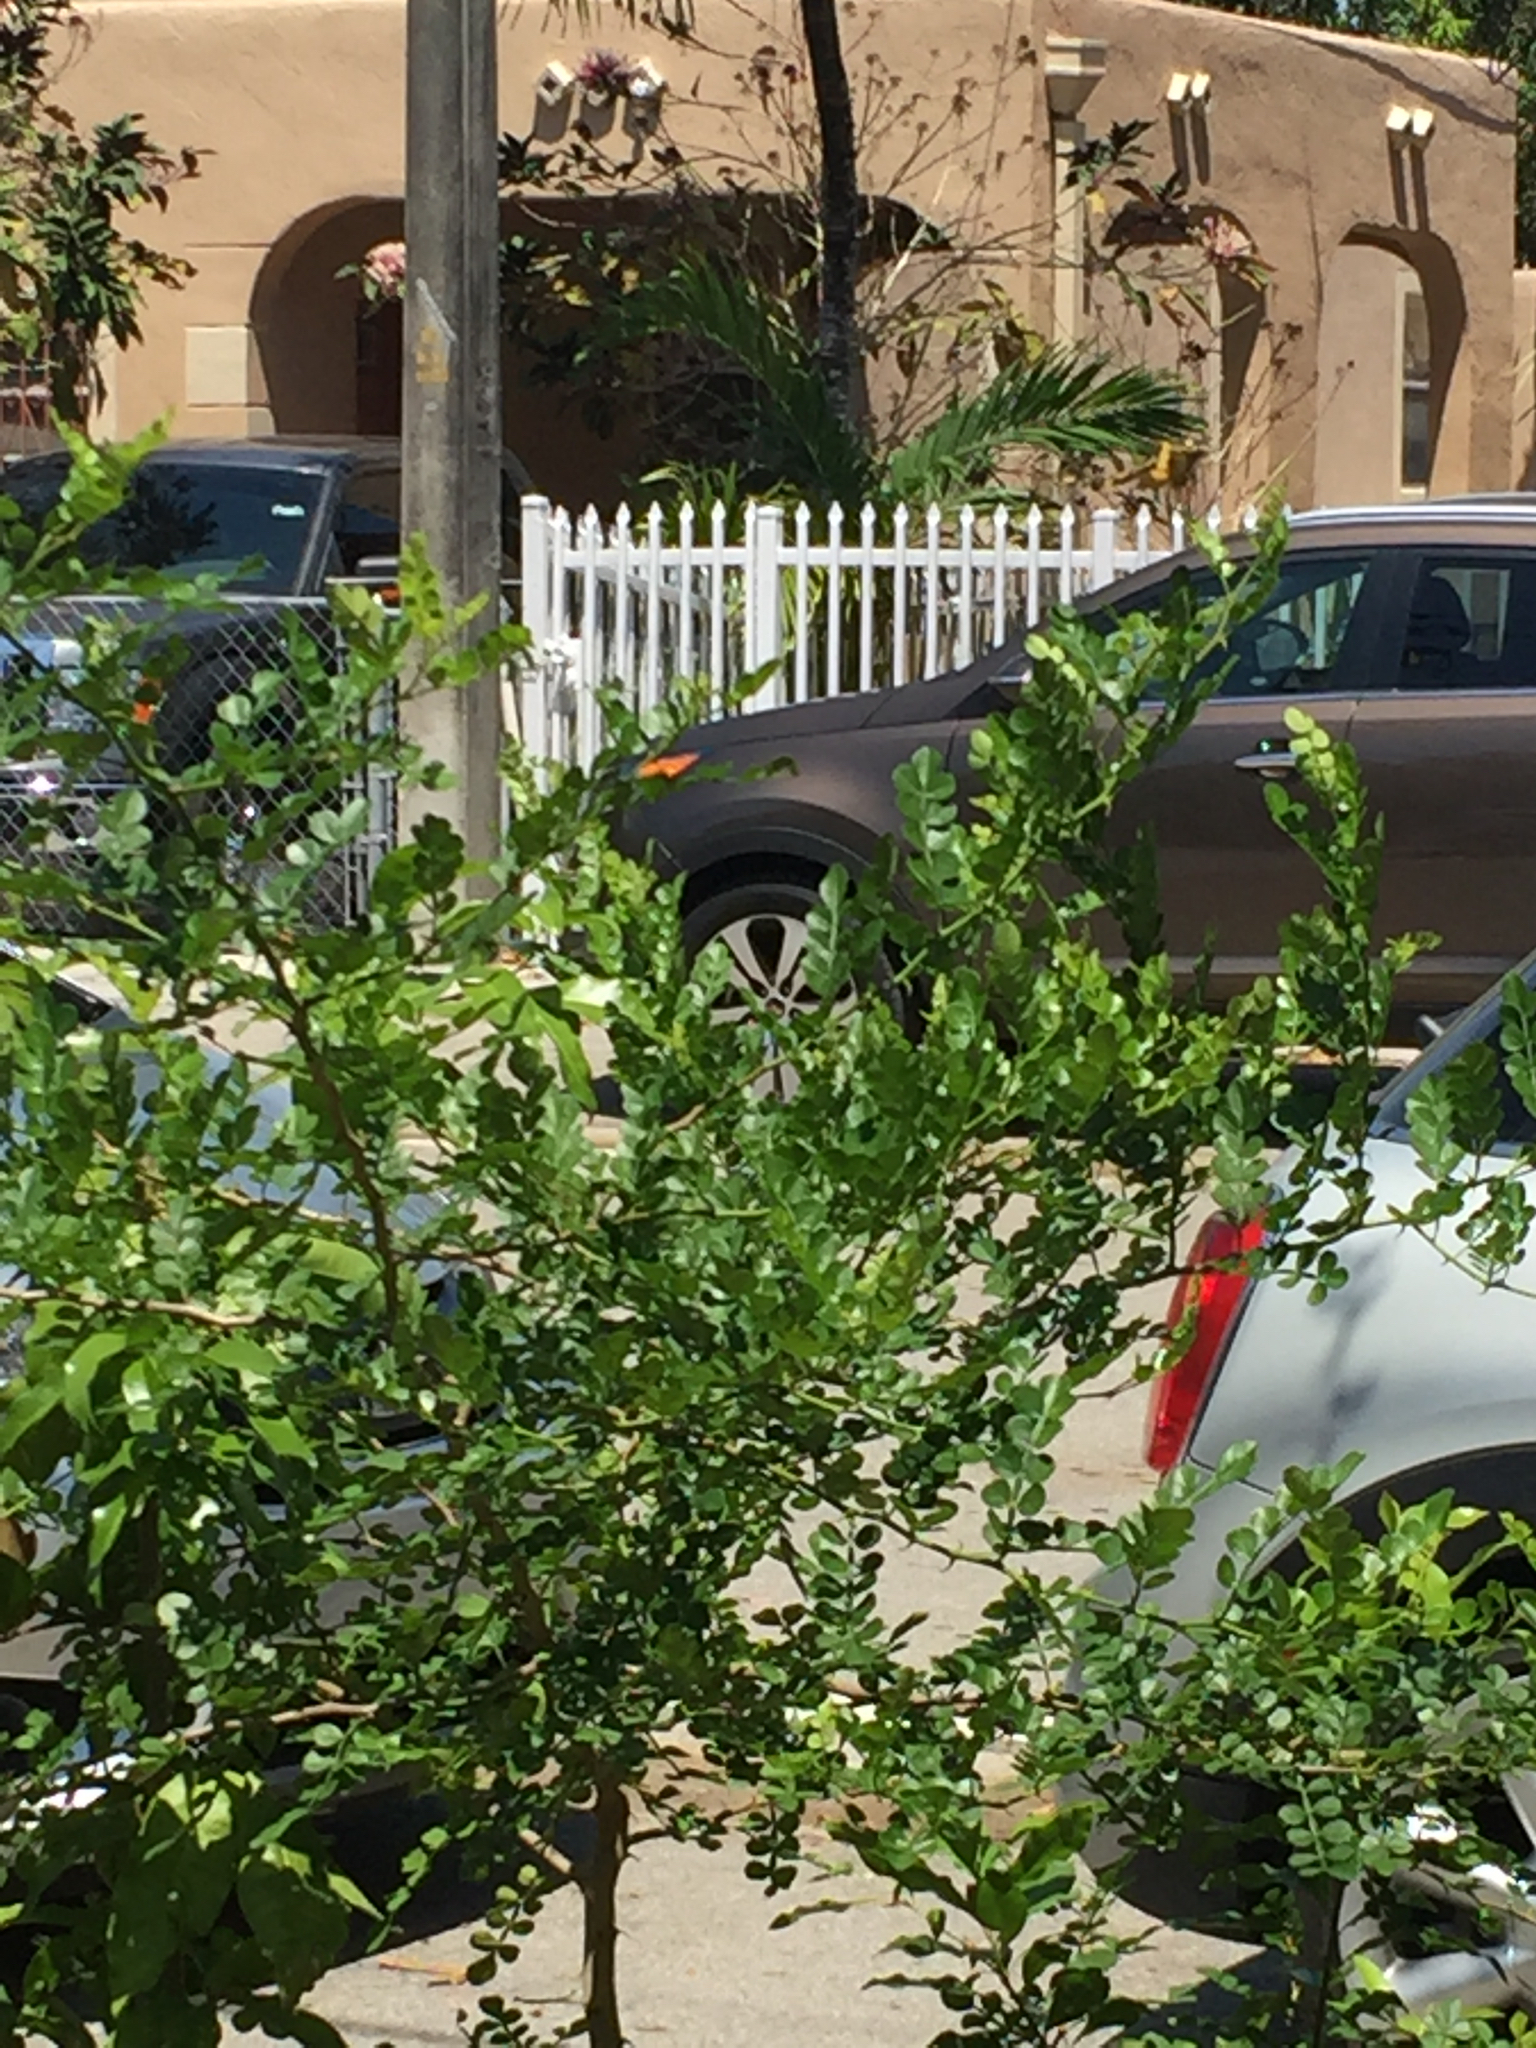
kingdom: Animalia
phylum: Arthropoda
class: Insecta
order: Lepidoptera
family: Papilionidae
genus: Papilio
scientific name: Papilio cresphontes
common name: Giant swallowtail
